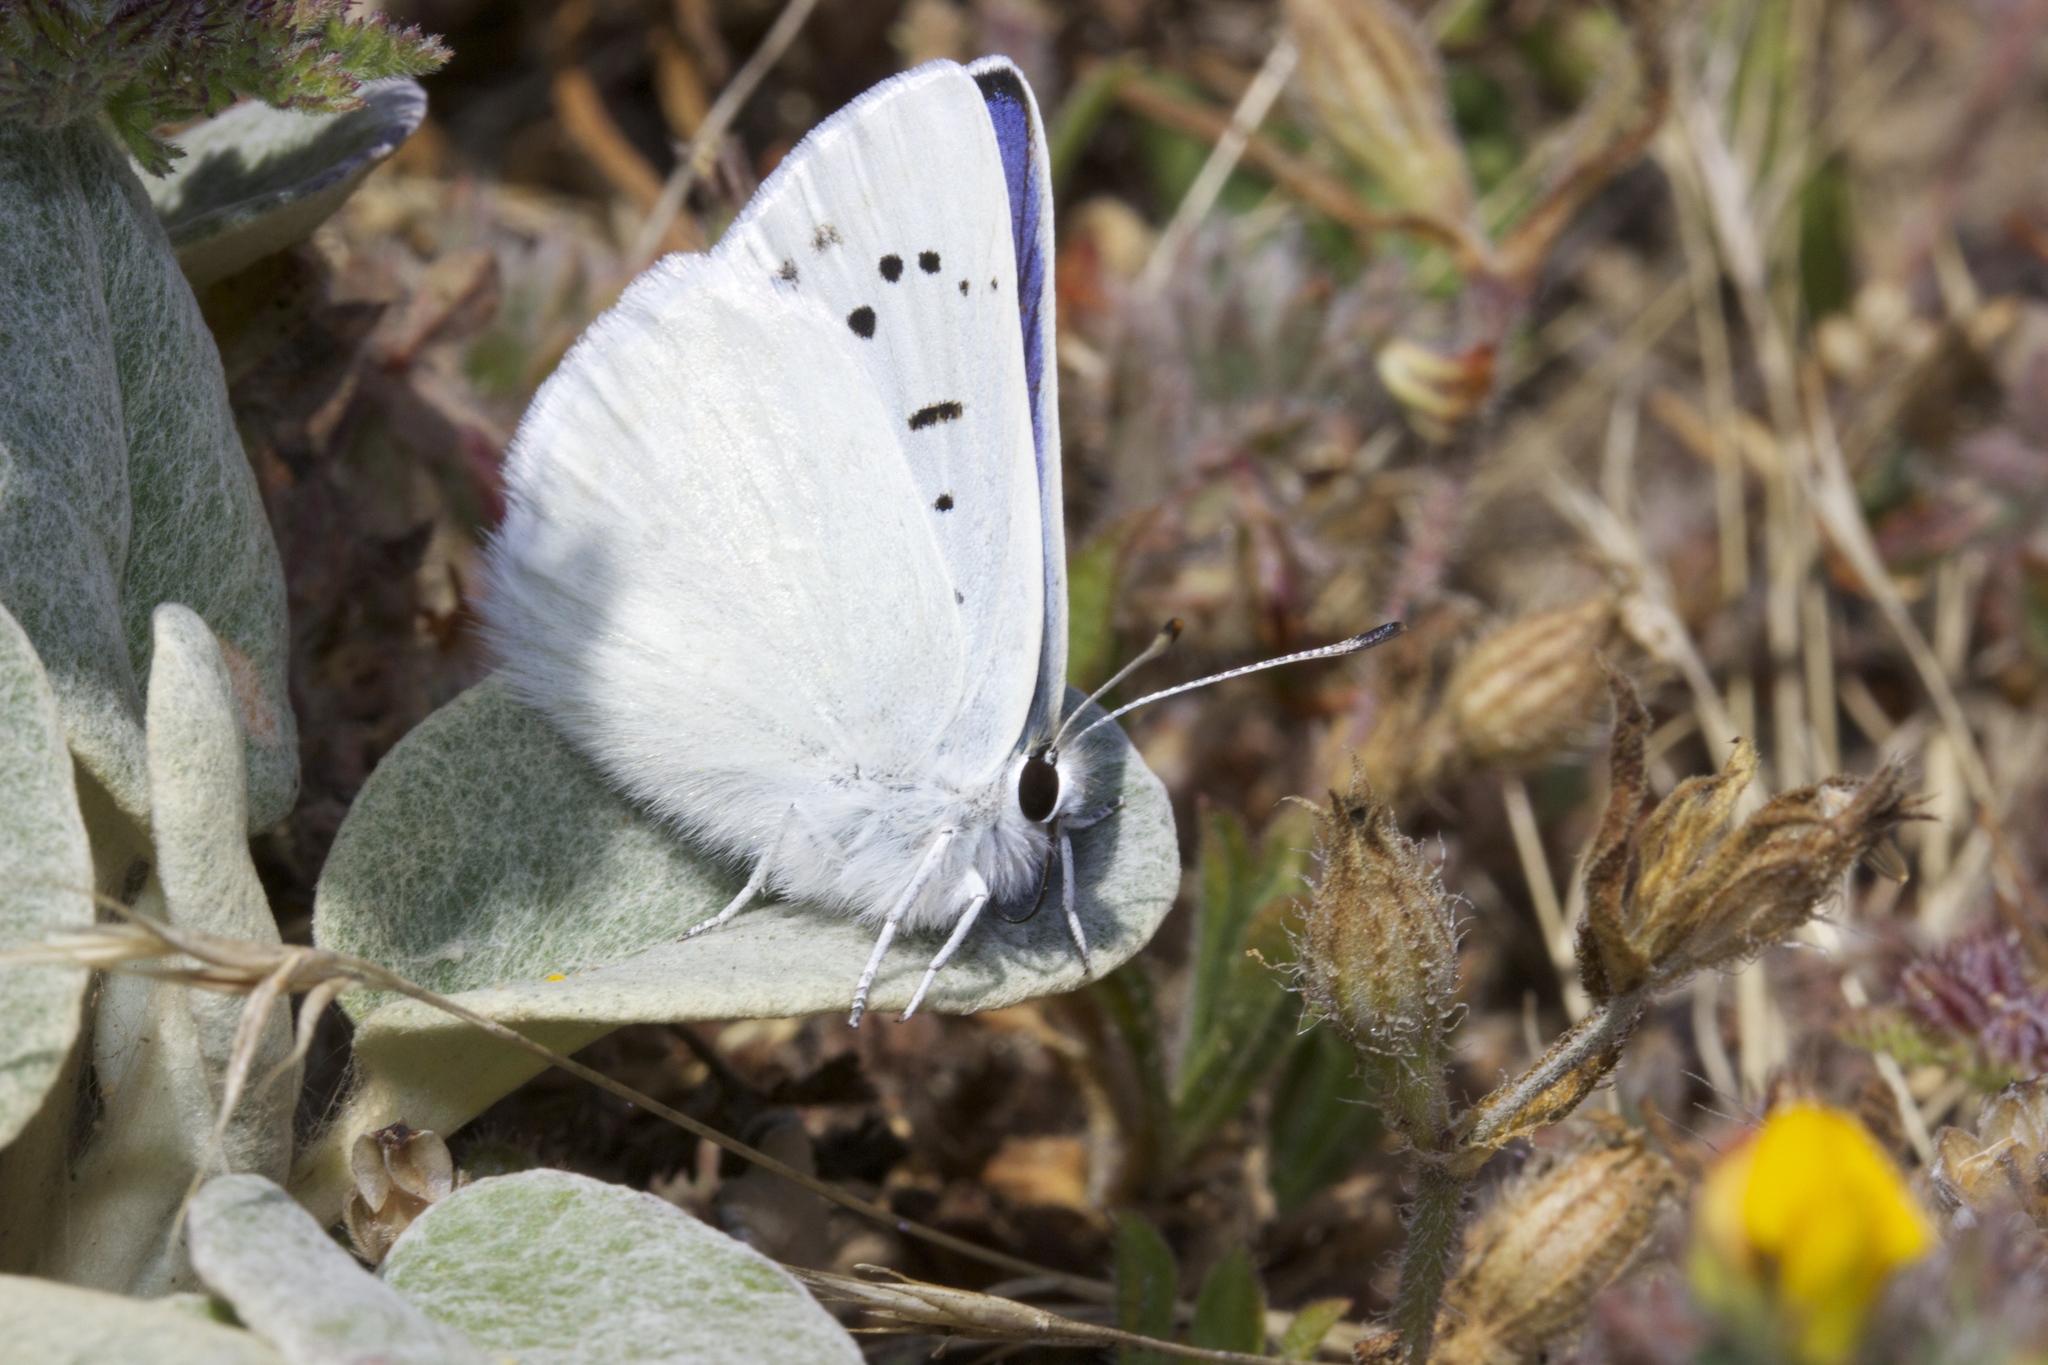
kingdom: Animalia
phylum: Arthropoda
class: Insecta
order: Lepidoptera
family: Lycaenidae
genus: Tharsalea
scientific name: Tharsalea heteronea
